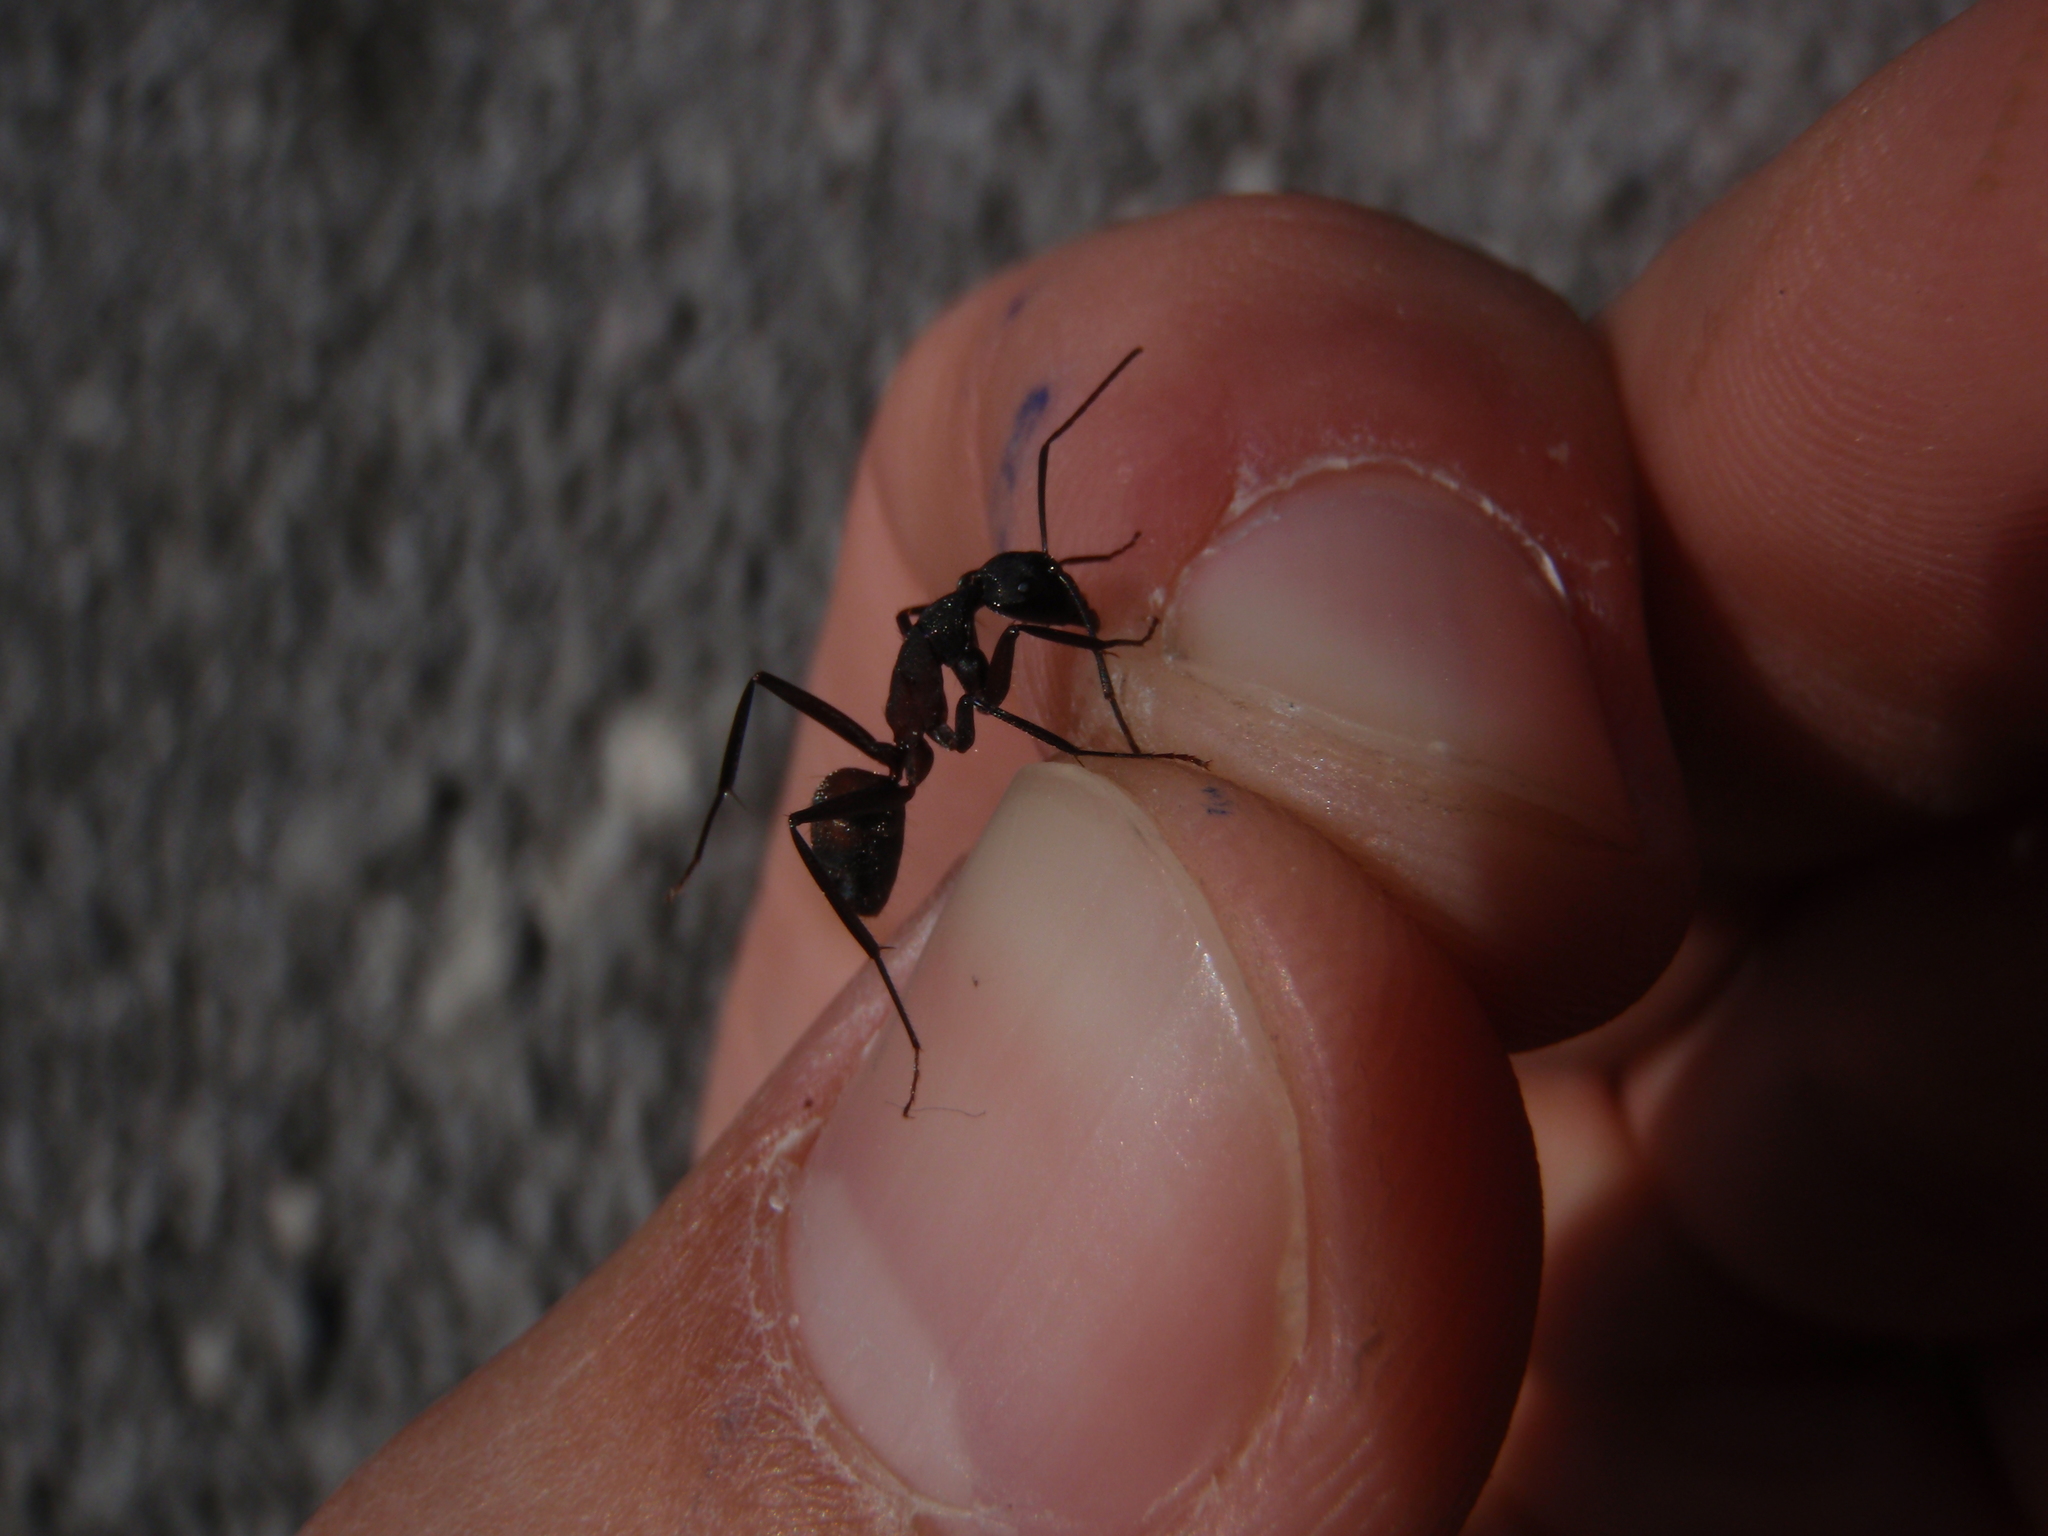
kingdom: Animalia
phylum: Arthropoda
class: Insecta
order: Hymenoptera
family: Formicidae
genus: Camponotus
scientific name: Camponotus cruentatus
